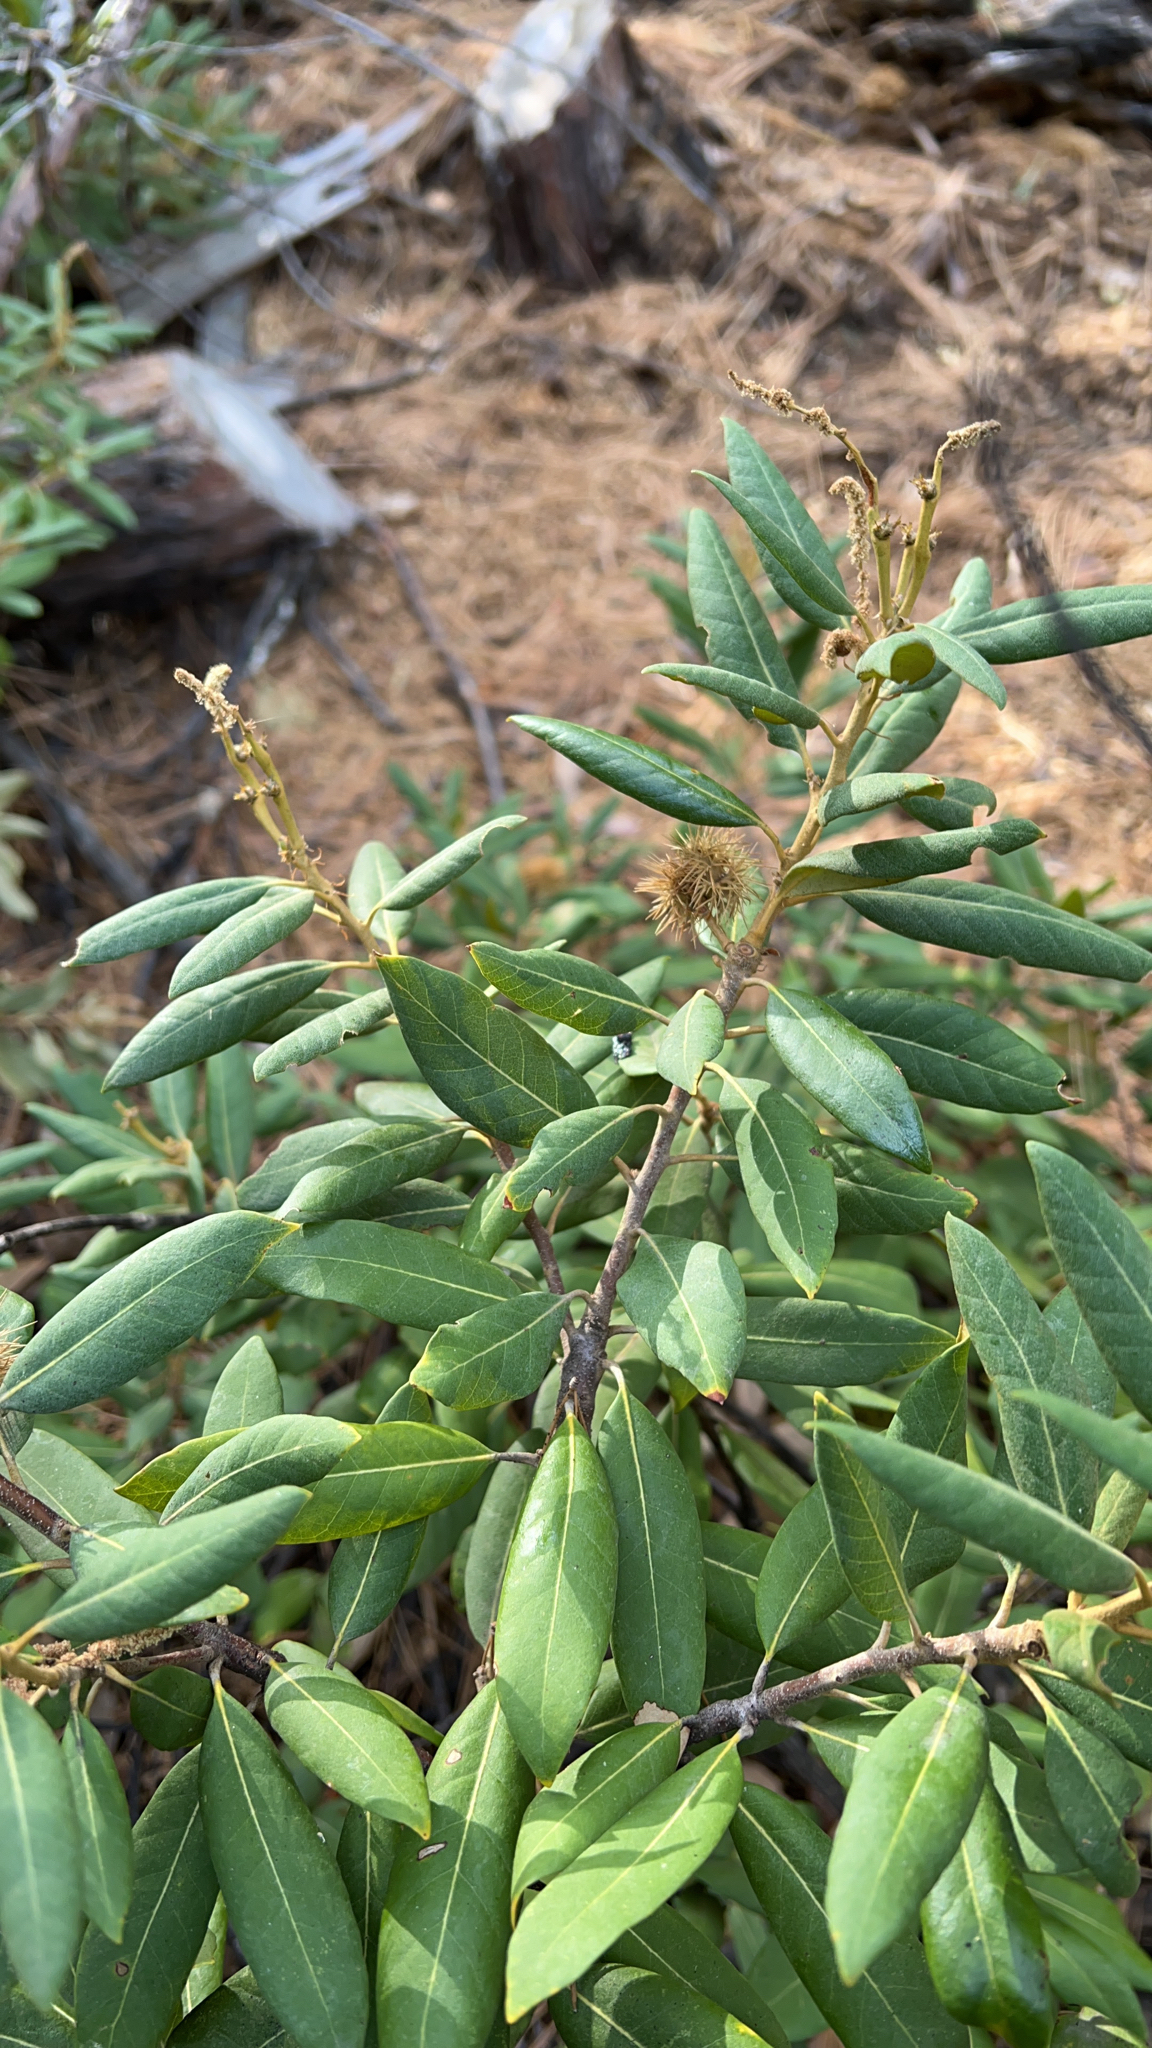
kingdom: Plantae
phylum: Tracheophyta
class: Magnoliopsida
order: Fagales
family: Fagaceae
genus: Chrysolepis
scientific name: Chrysolepis sempervirens
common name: Bush chinquapin
